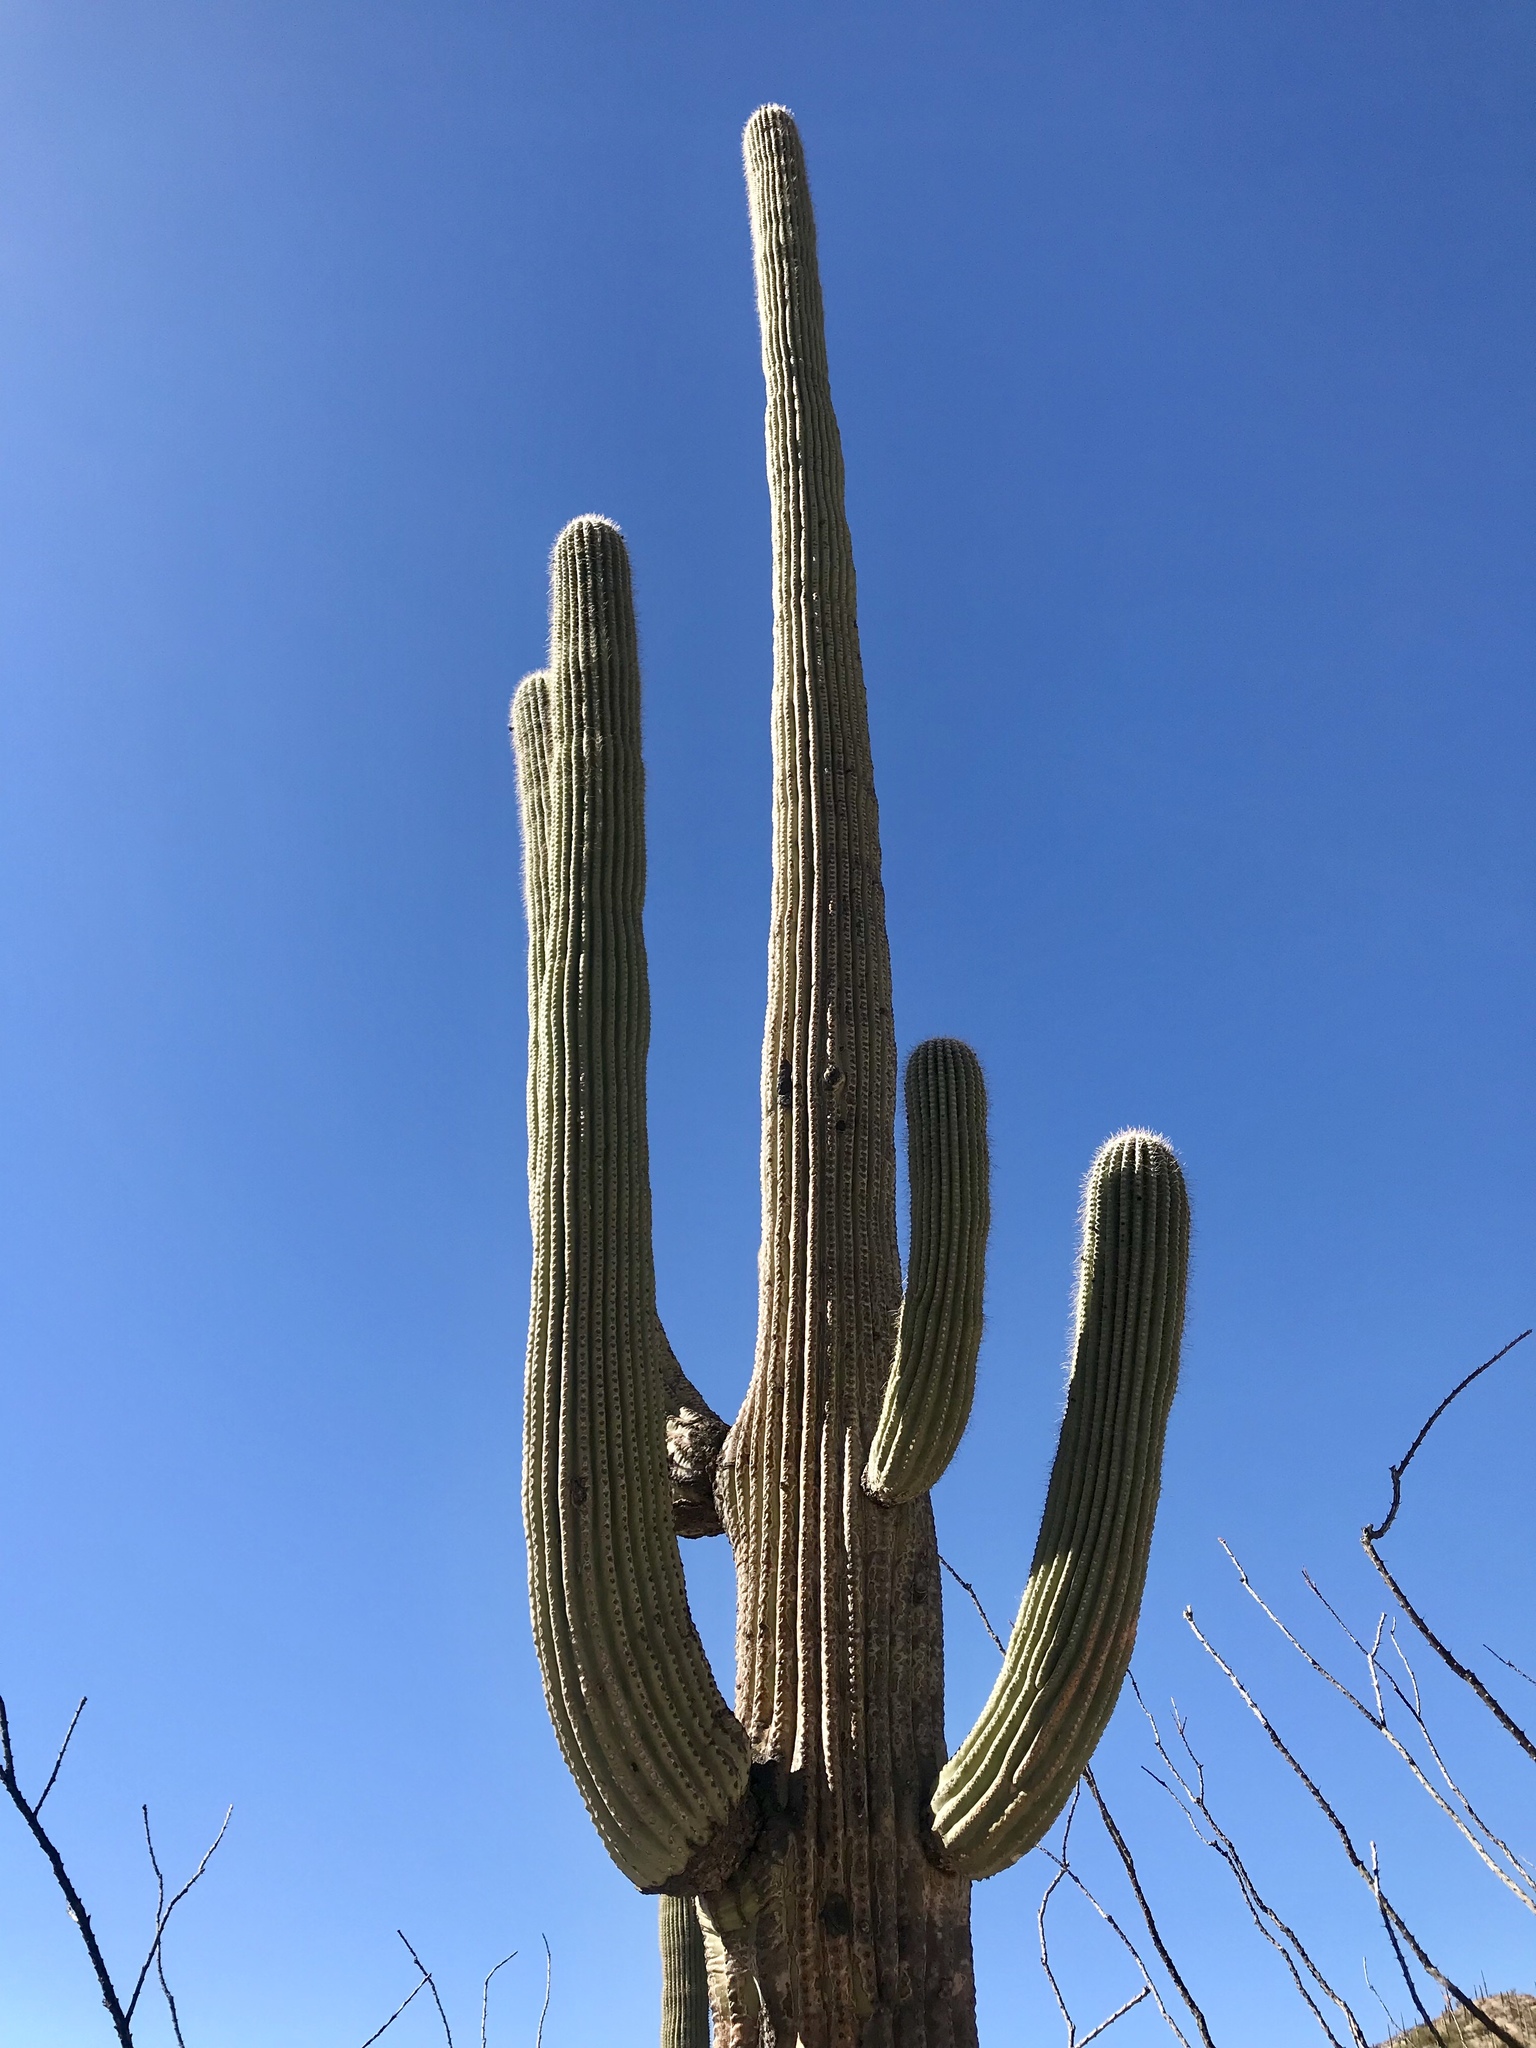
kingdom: Plantae
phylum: Tracheophyta
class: Magnoliopsida
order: Caryophyllales
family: Cactaceae
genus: Carnegiea
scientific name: Carnegiea gigantea
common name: Saguaro
